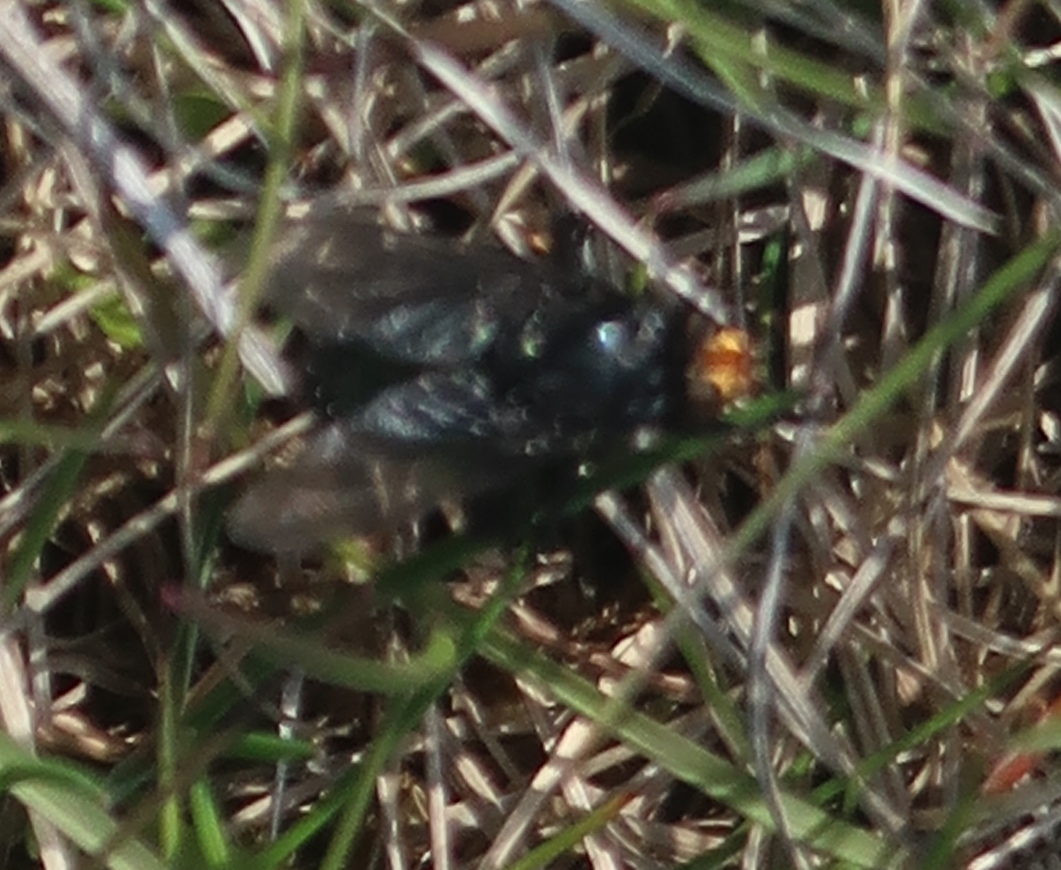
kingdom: Animalia
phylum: Arthropoda
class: Insecta
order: Diptera
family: Calliphoridae
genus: Cynomya
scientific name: Cynomya mortuorum
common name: Bluebottle blow fly
